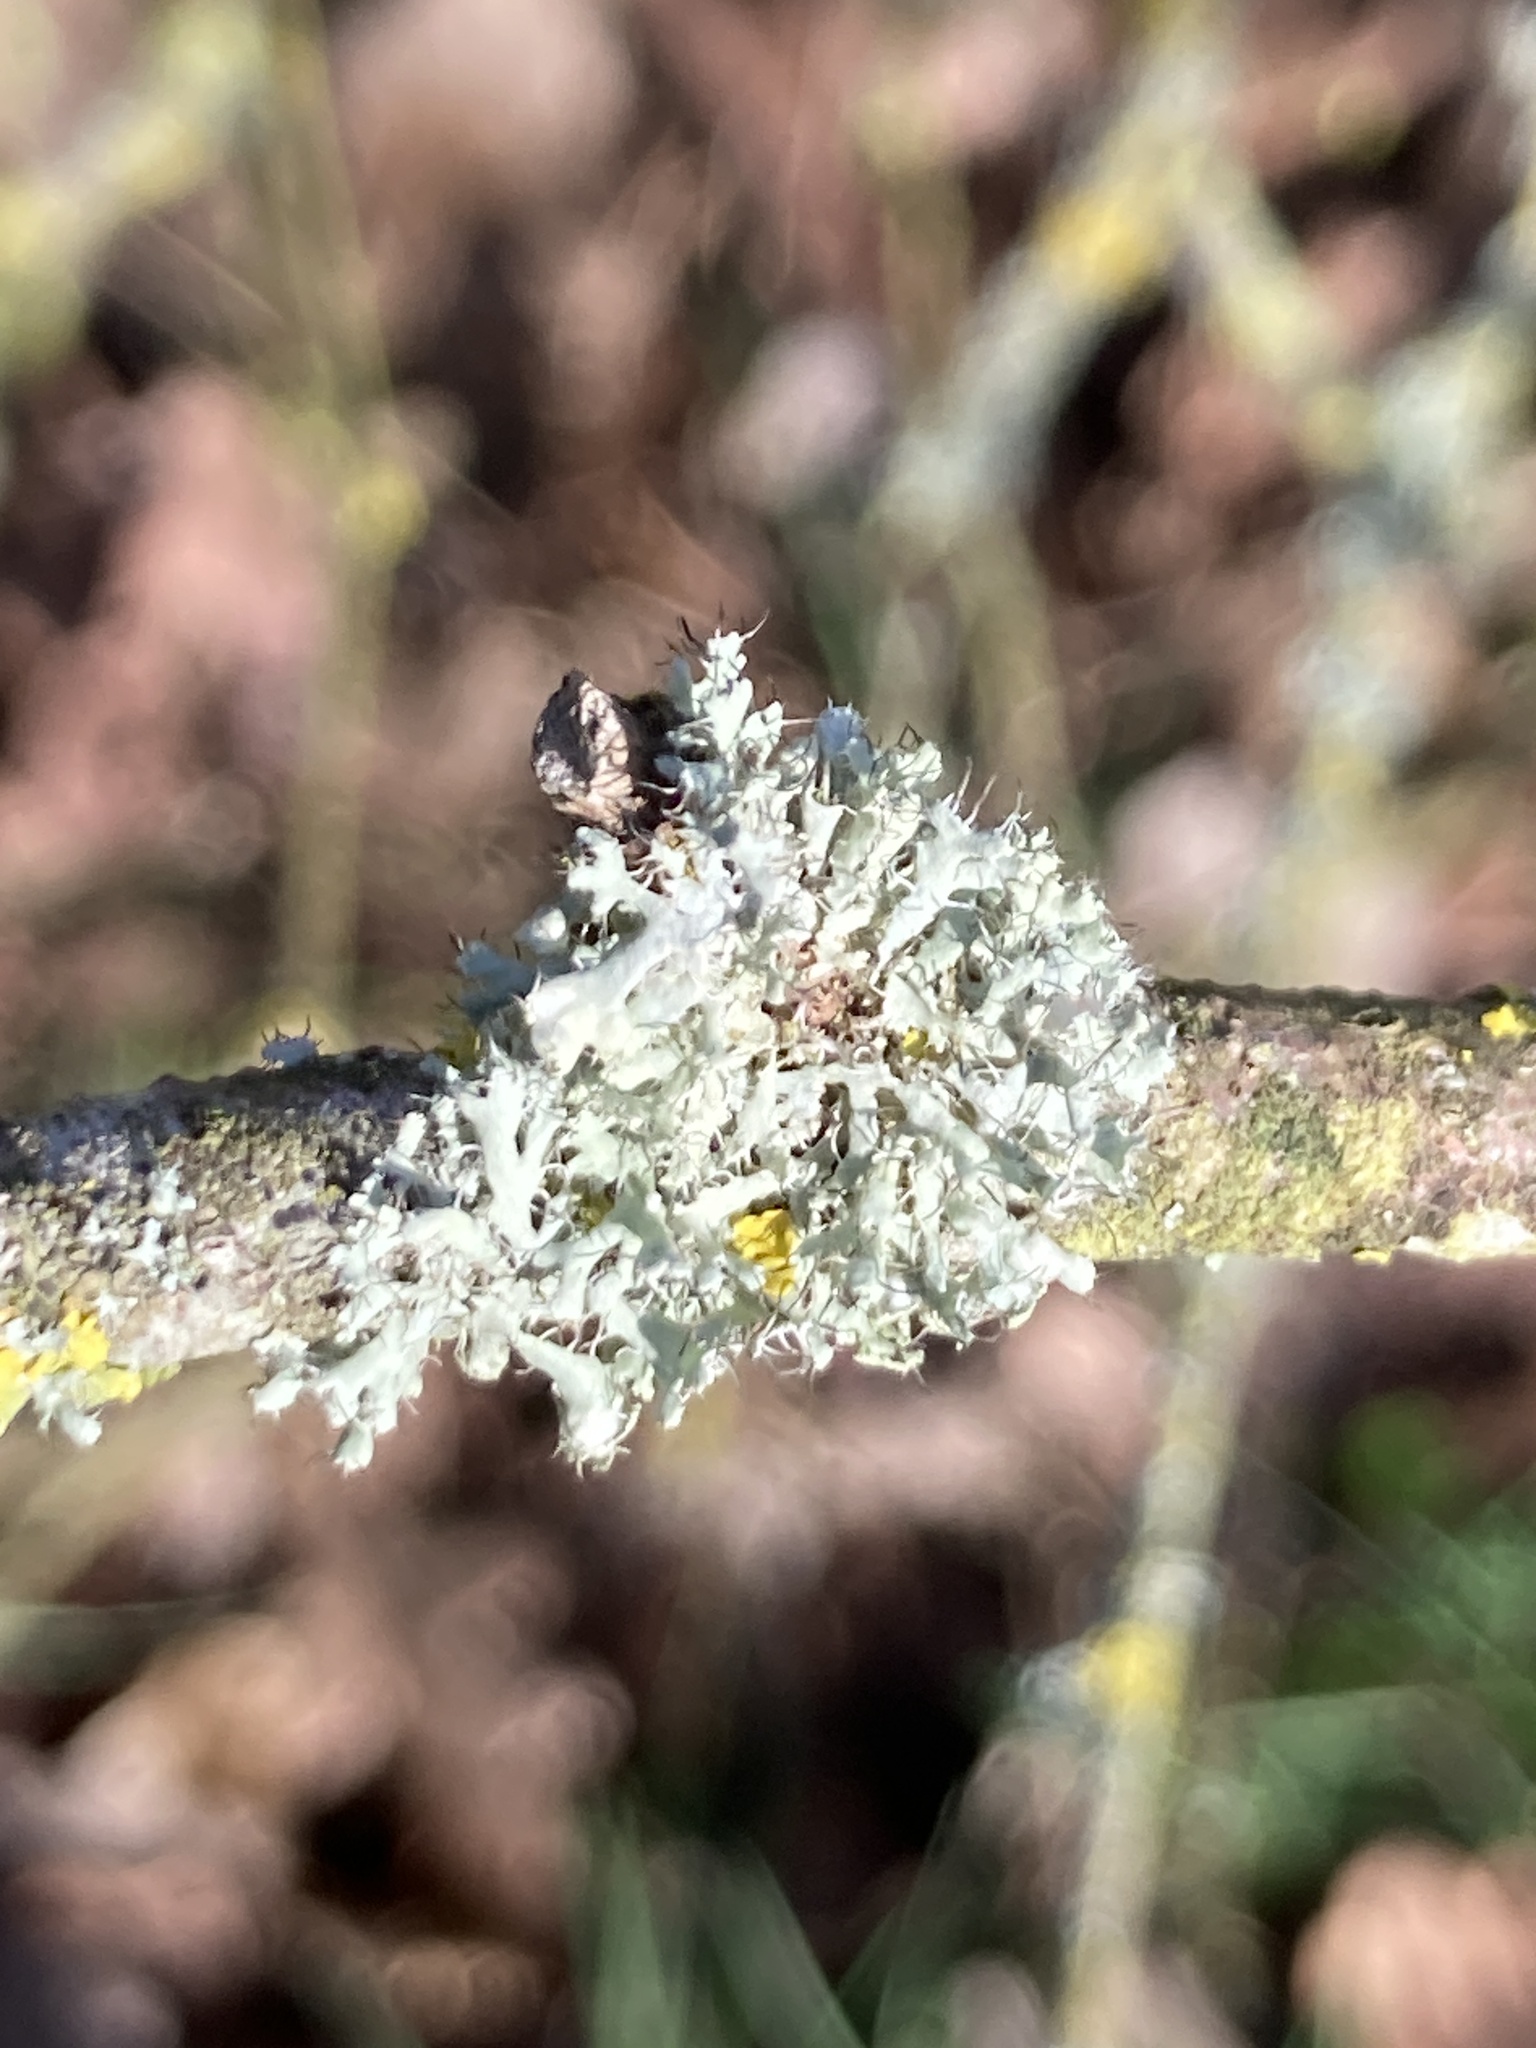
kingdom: Fungi
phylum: Ascomycota
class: Lecanoromycetes
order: Caliciales
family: Physciaceae
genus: Physcia
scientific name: Physcia adscendens
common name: Hooded rosette lichen
